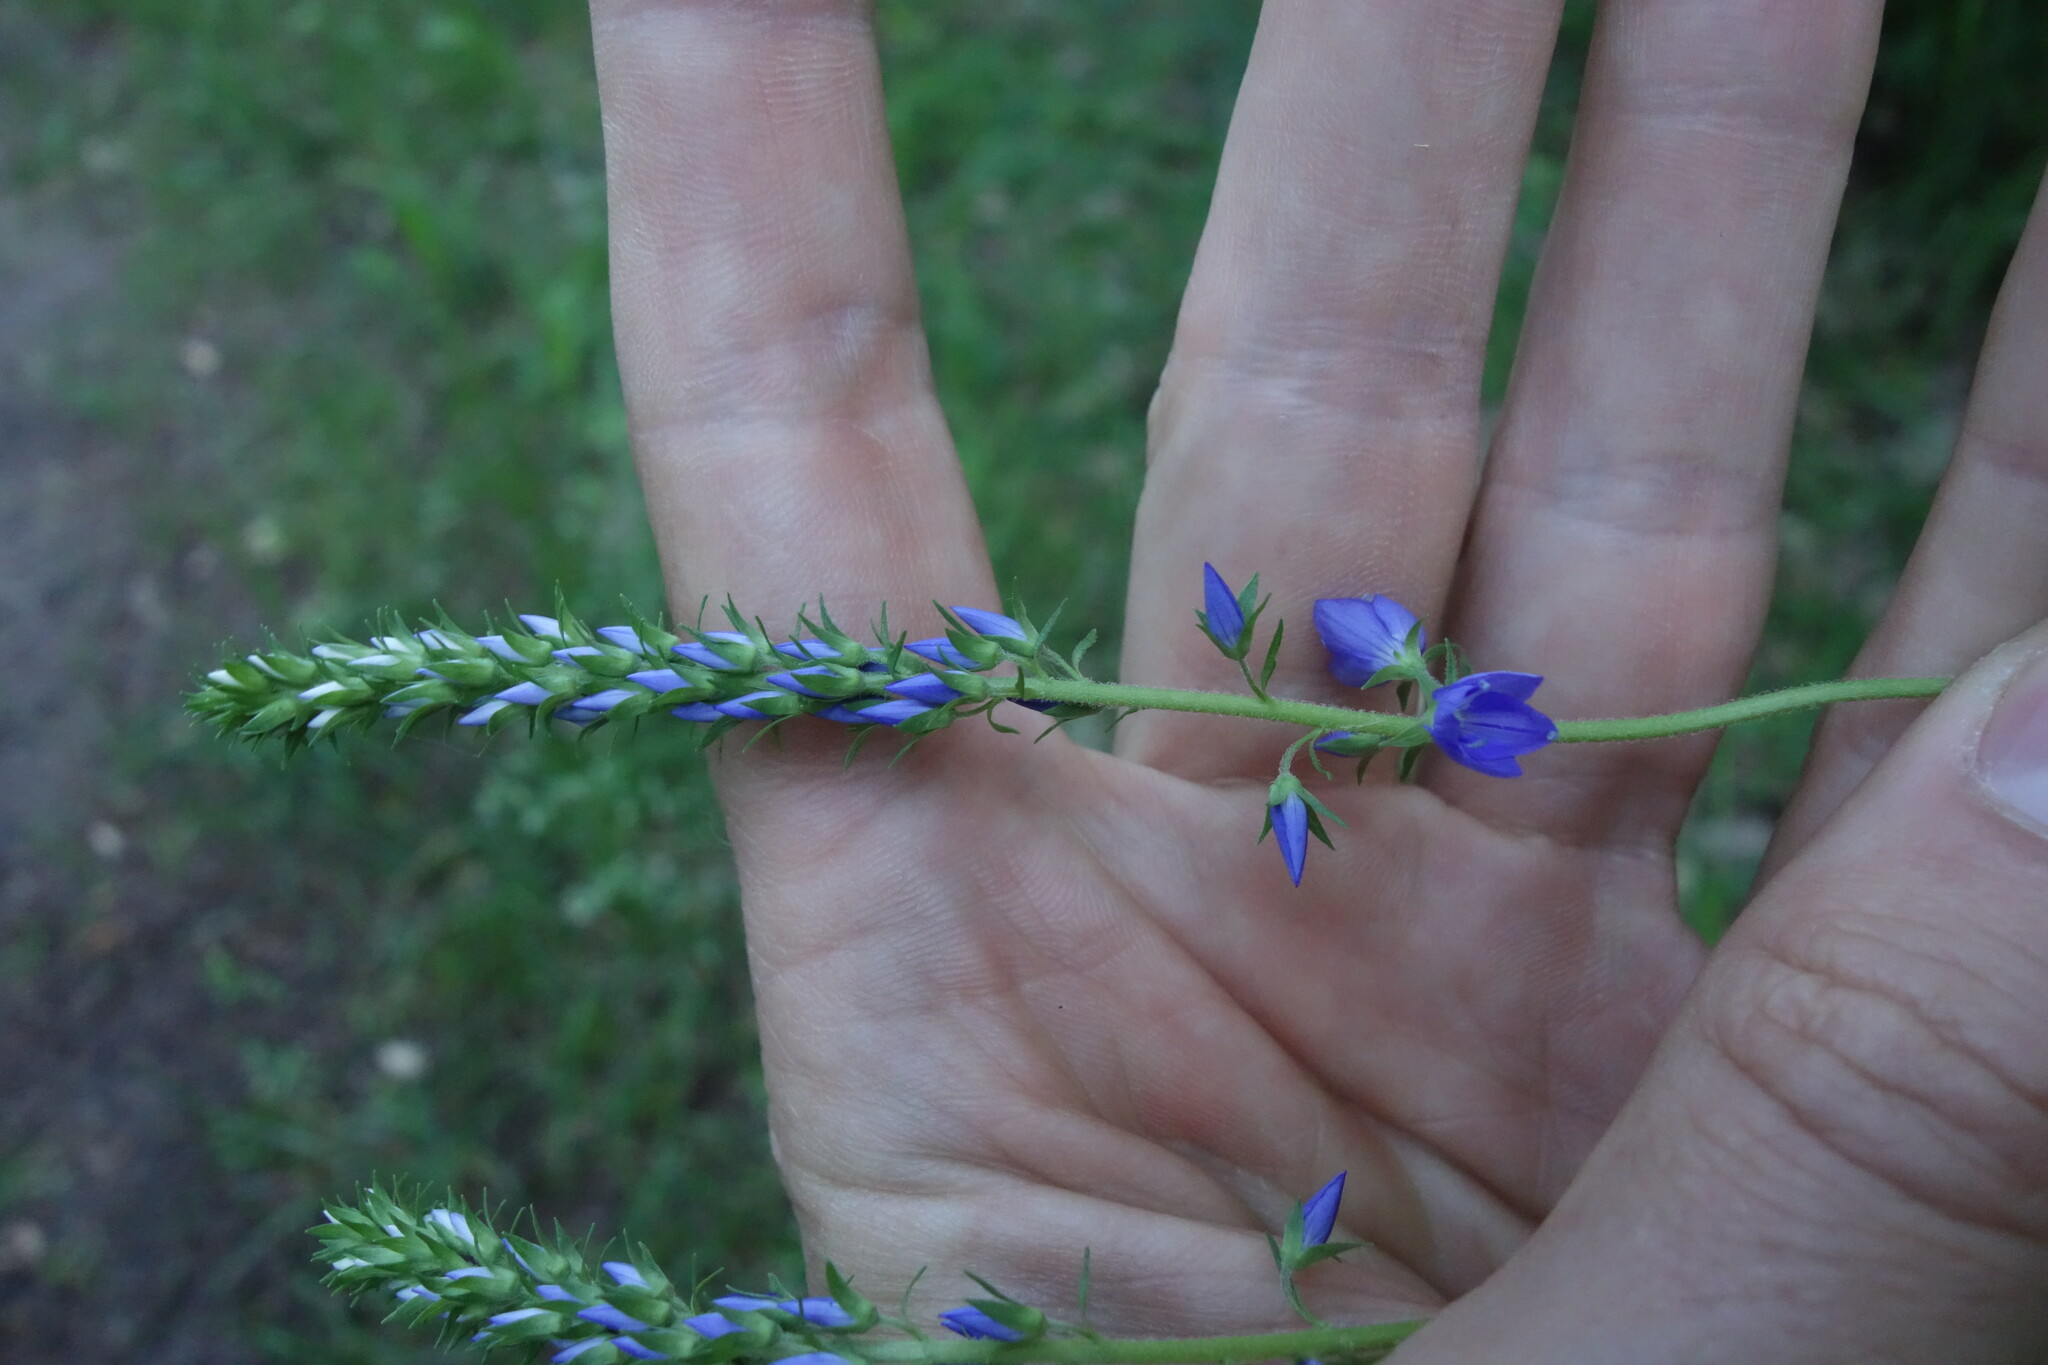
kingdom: Plantae
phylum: Tracheophyta
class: Magnoliopsida
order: Lamiales
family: Plantaginaceae
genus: Veronica
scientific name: Veronica teucrium
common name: Large speedwell
